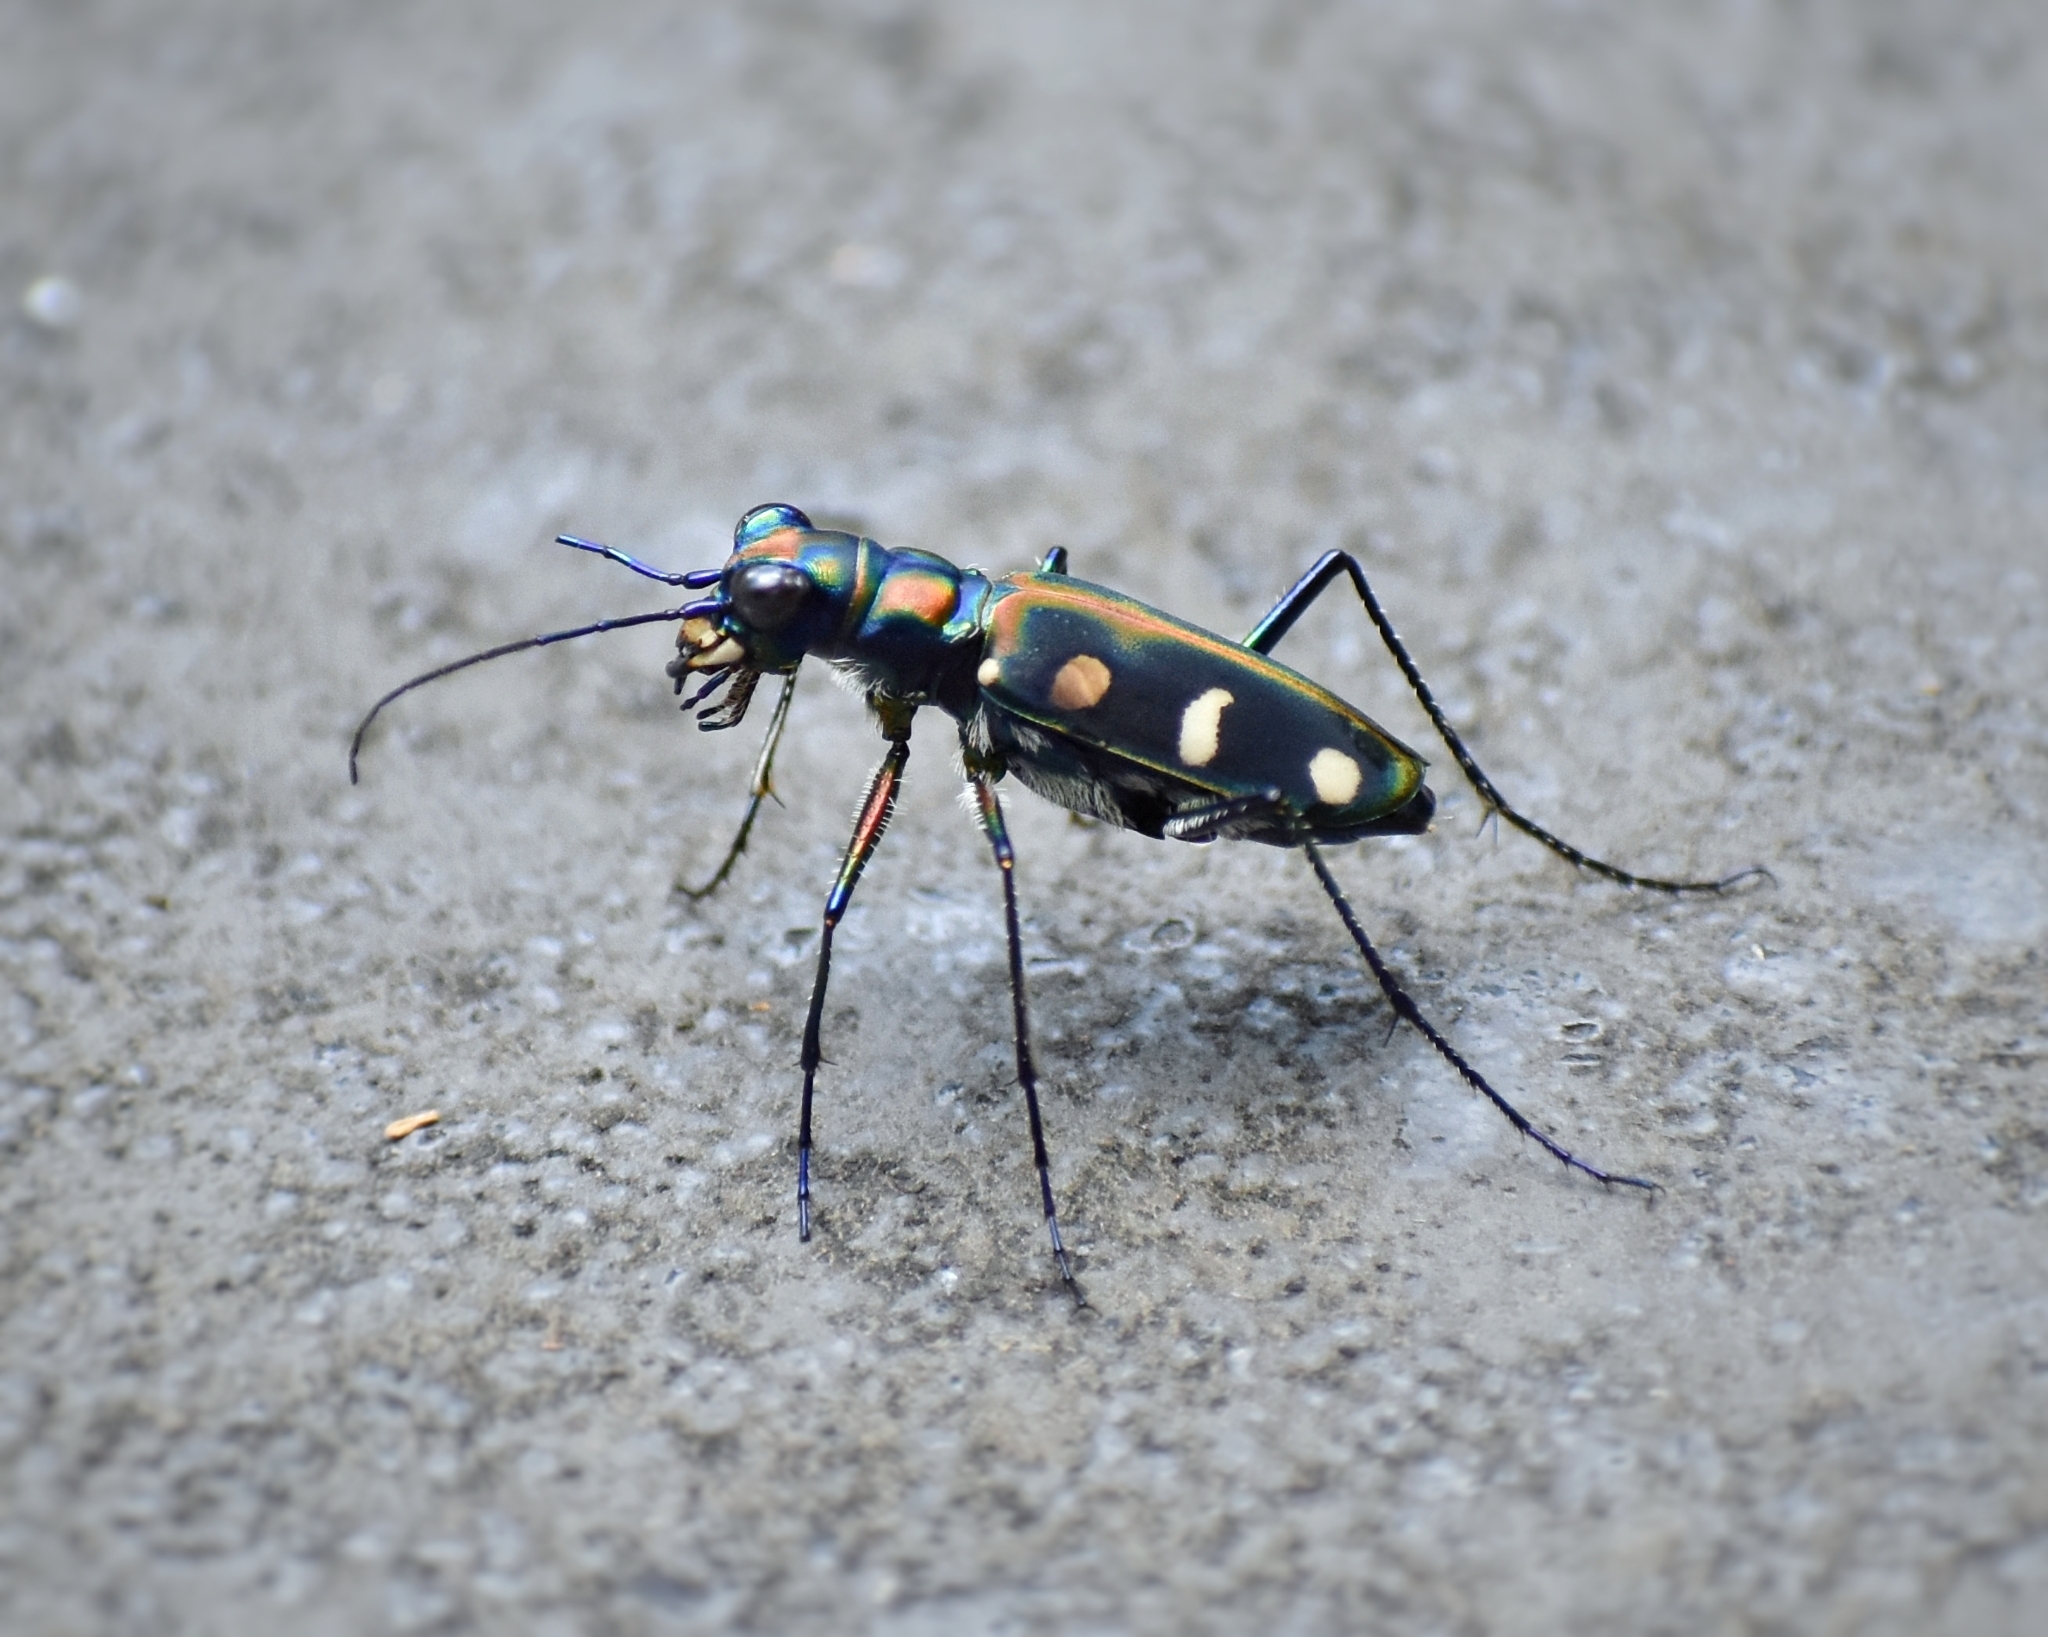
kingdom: Animalia
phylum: Arthropoda
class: Insecta
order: Coleoptera
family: Carabidae
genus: Cicindela
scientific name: Cicindela aurulenta
